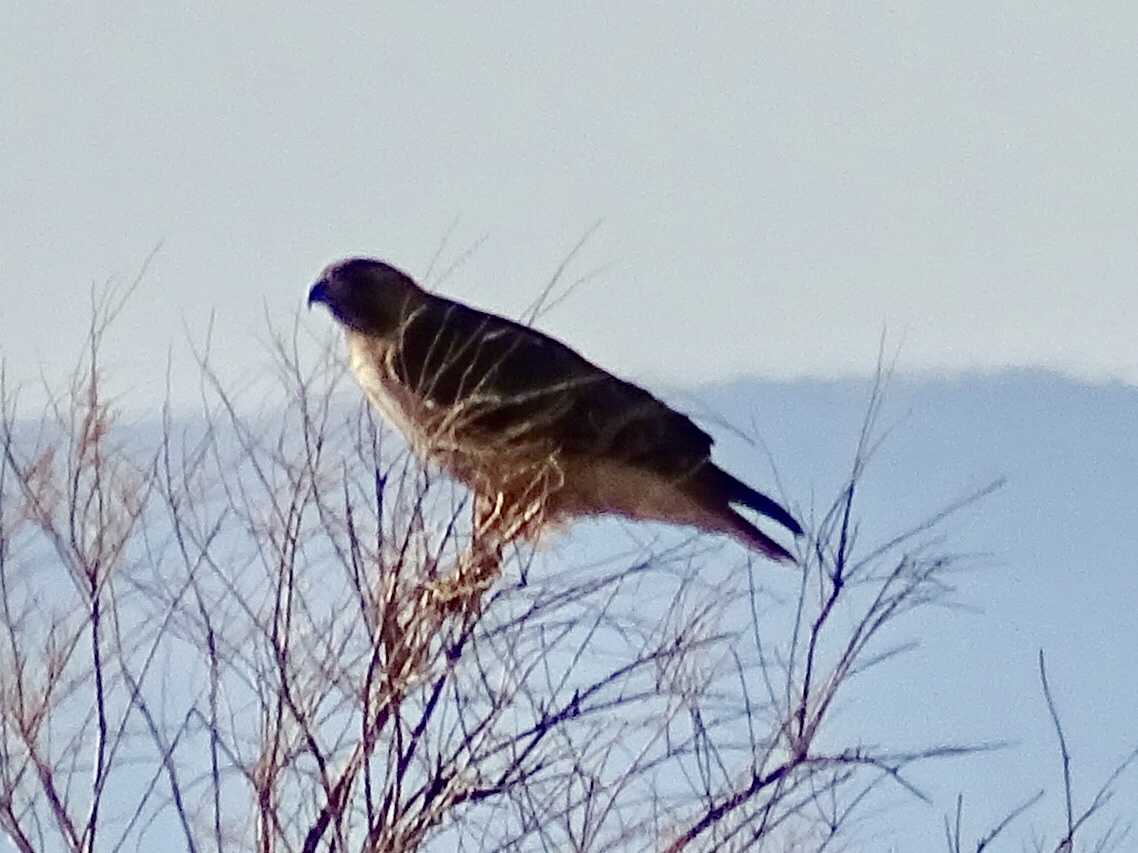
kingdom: Animalia
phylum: Chordata
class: Aves
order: Accipitriformes
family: Accipitridae
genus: Buteo
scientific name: Buteo jamaicensis
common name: Red-tailed hawk
